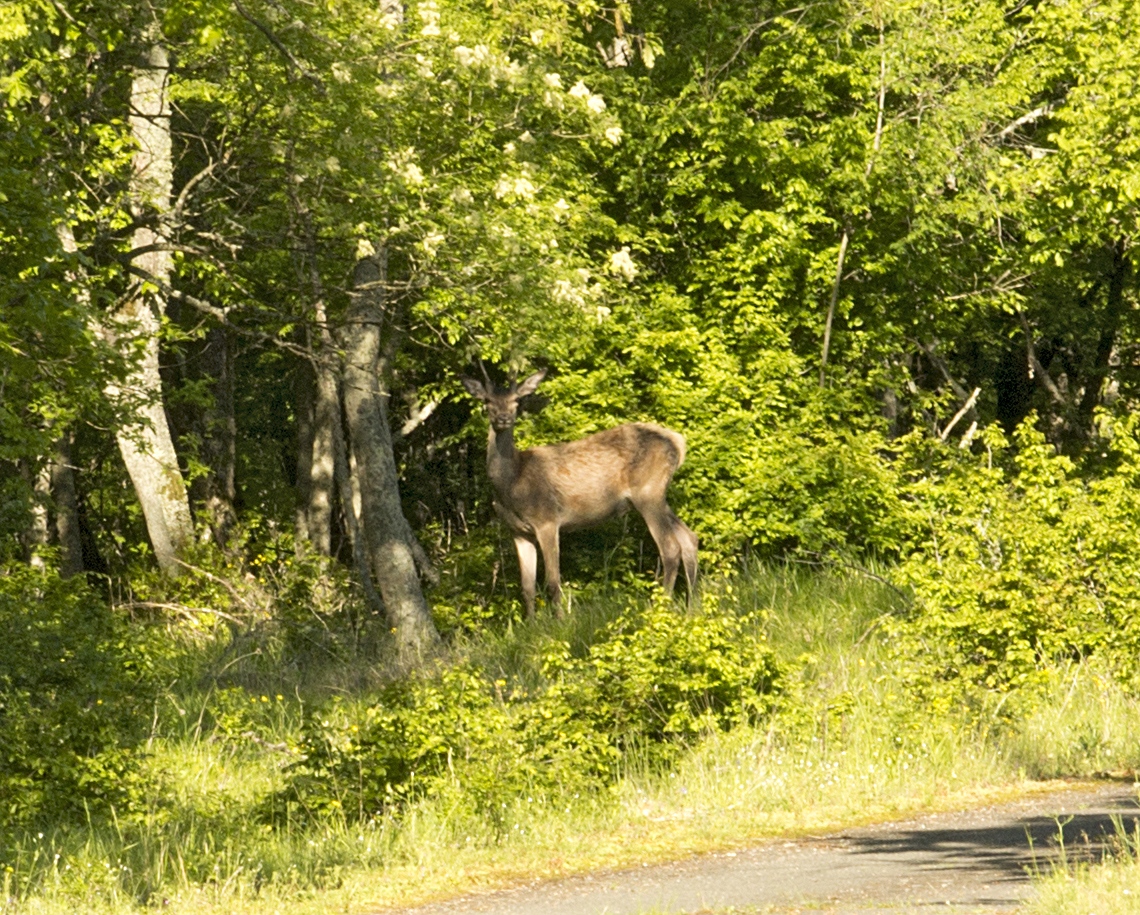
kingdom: Animalia
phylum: Chordata
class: Mammalia
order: Artiodactyla
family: Cervidae
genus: Cervus
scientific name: Cervus elaphus
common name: Red deer
